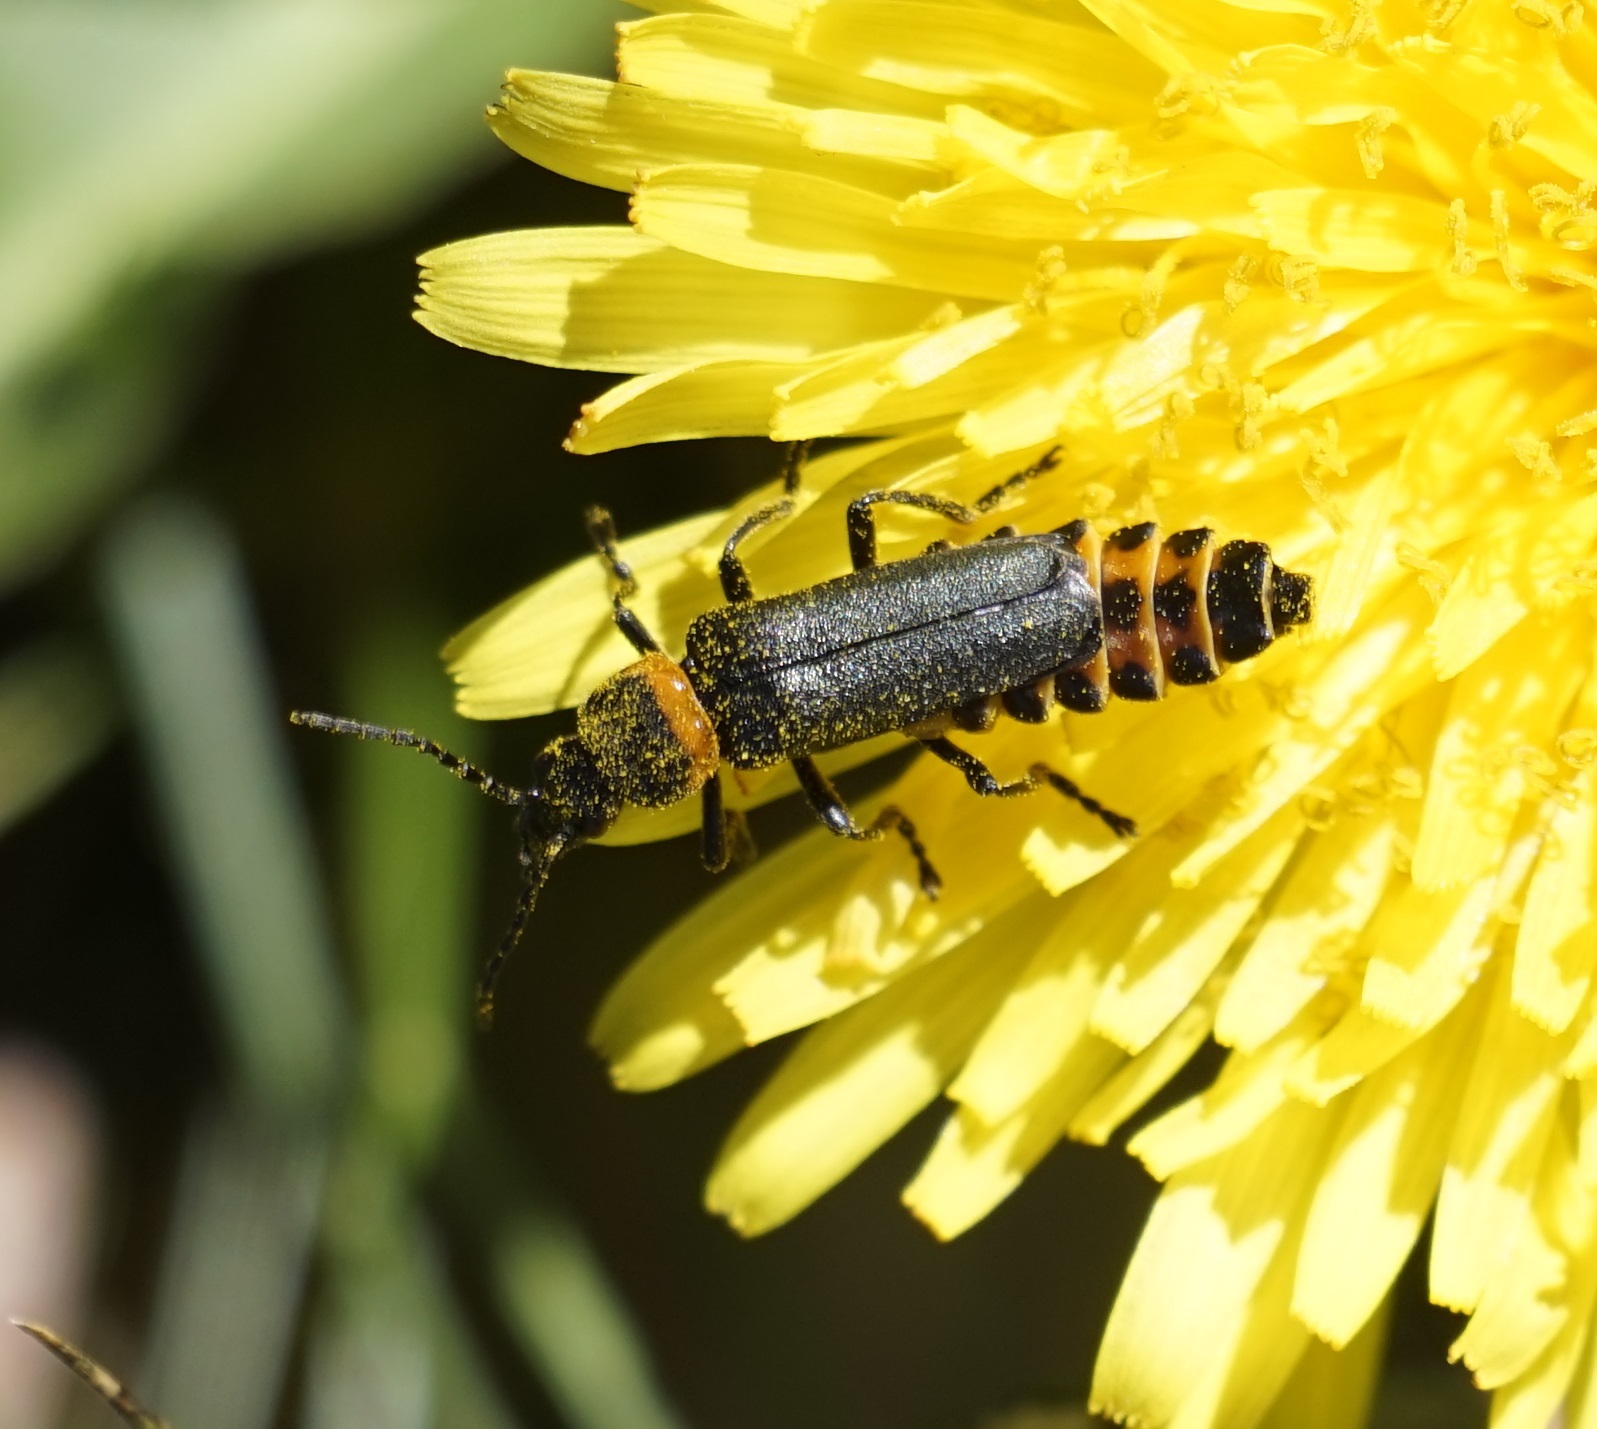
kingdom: Animalia
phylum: Arthropoda
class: Insecta
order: Coleoptera
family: Cantharidae
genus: Chauliognathus
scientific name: Chauliognathus
